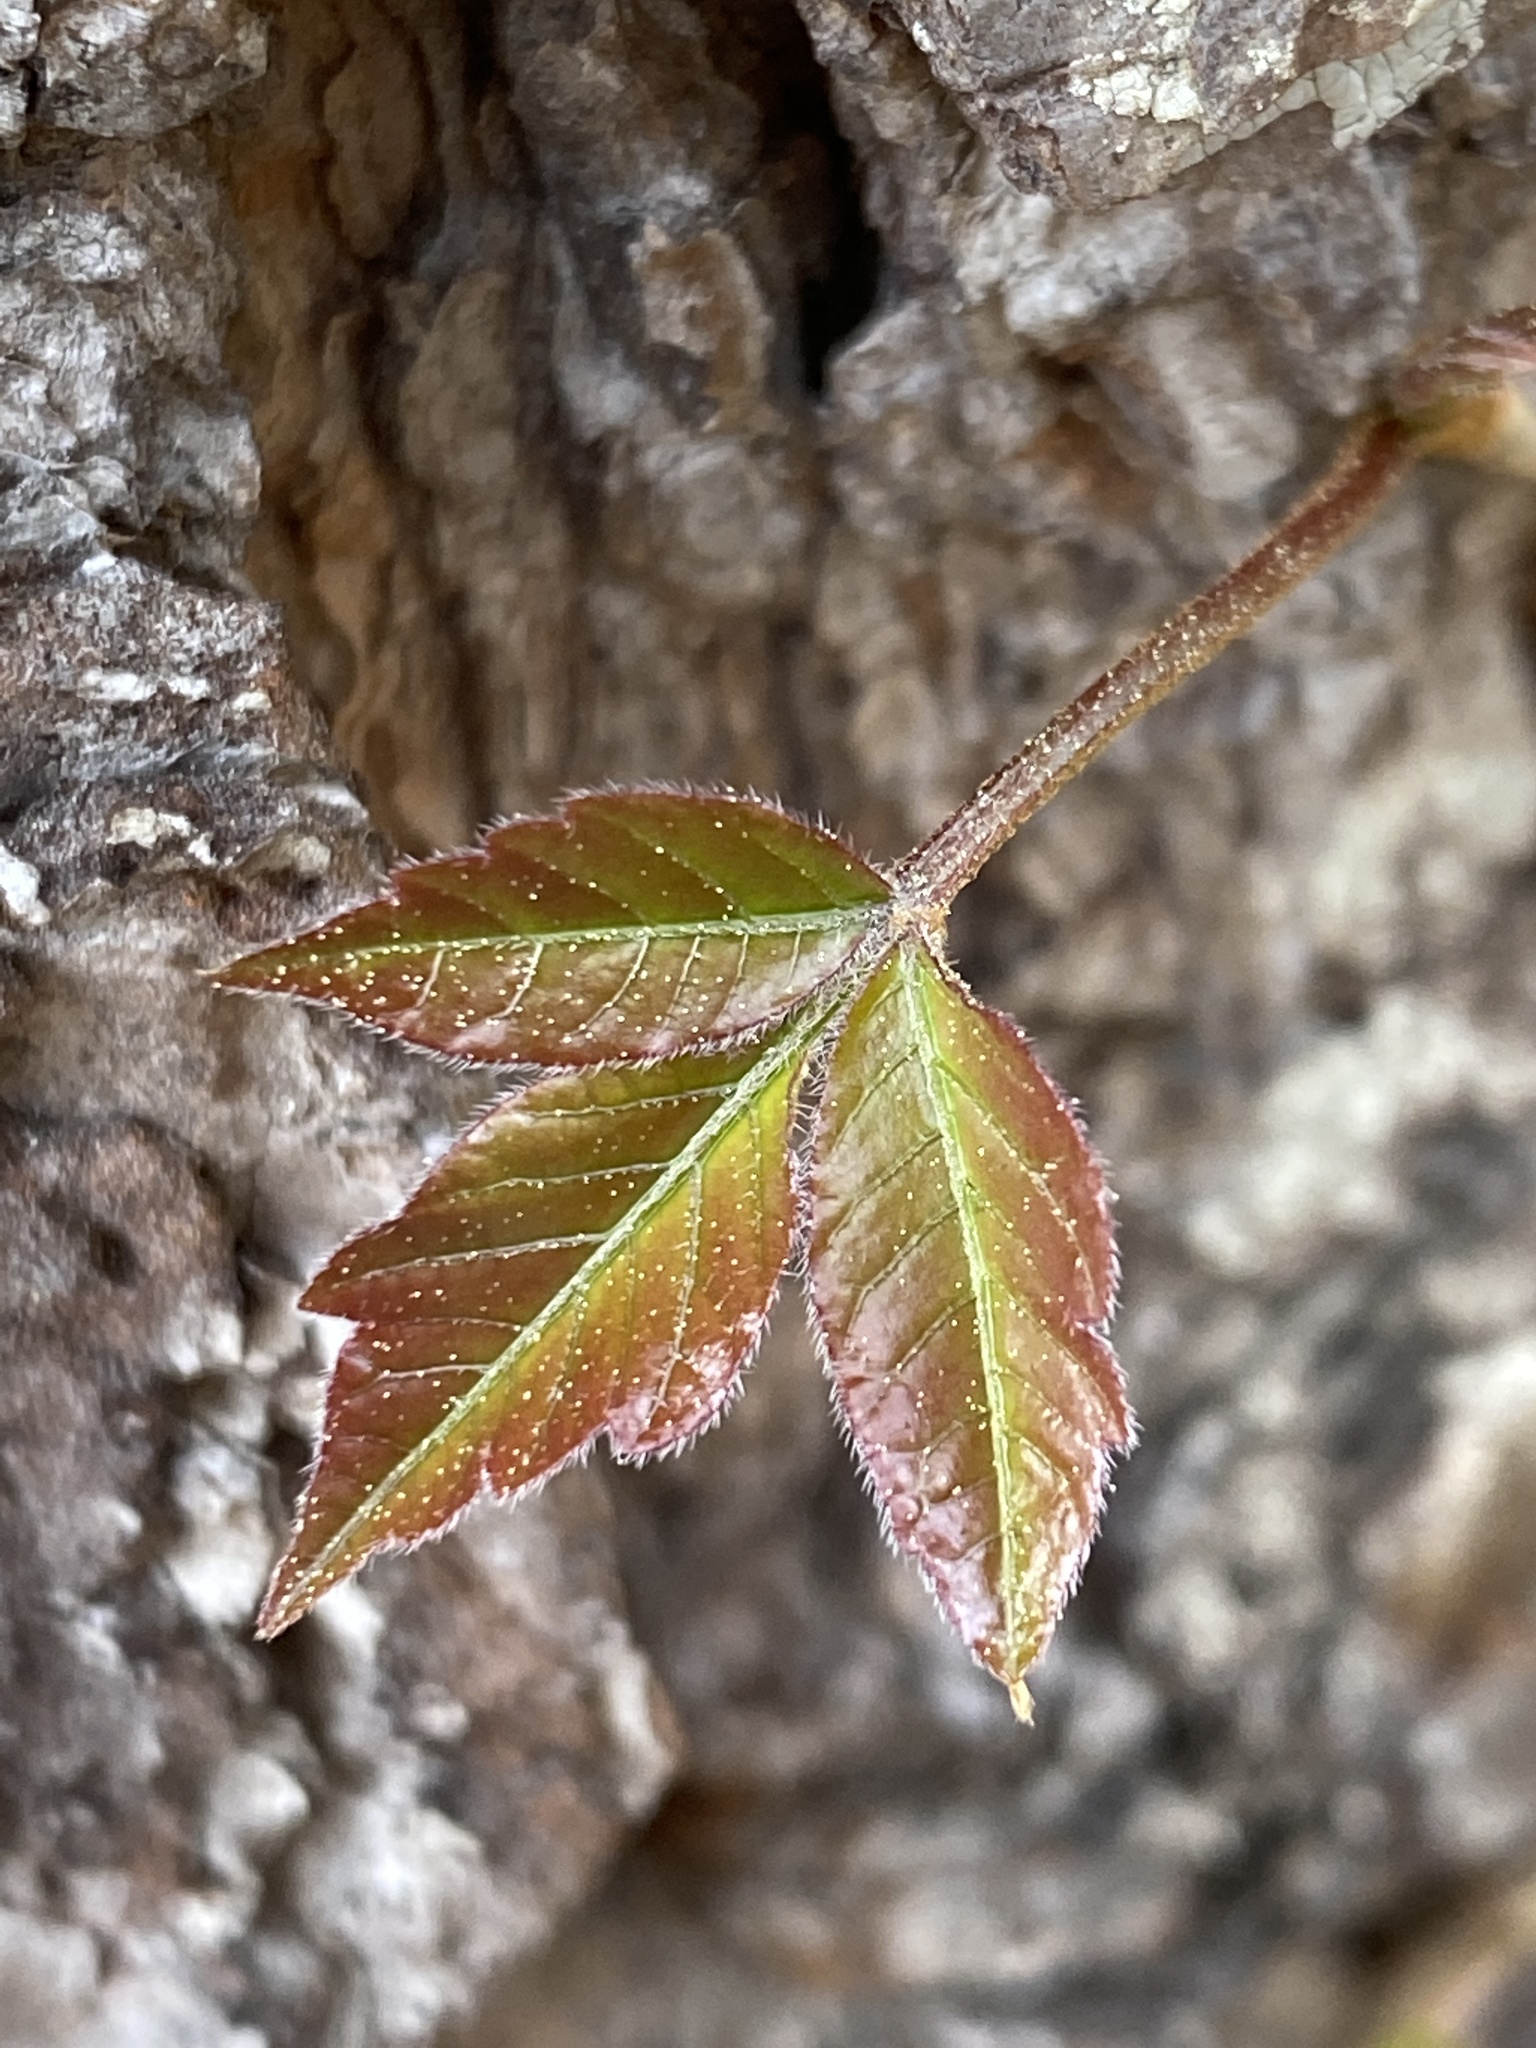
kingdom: Plantae
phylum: Tracheophyta
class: Magnoliopsida
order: Sapindales
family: Anacardiaceae
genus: Toxicodendron
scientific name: Toxicodendron radicans
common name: Poison ivy
